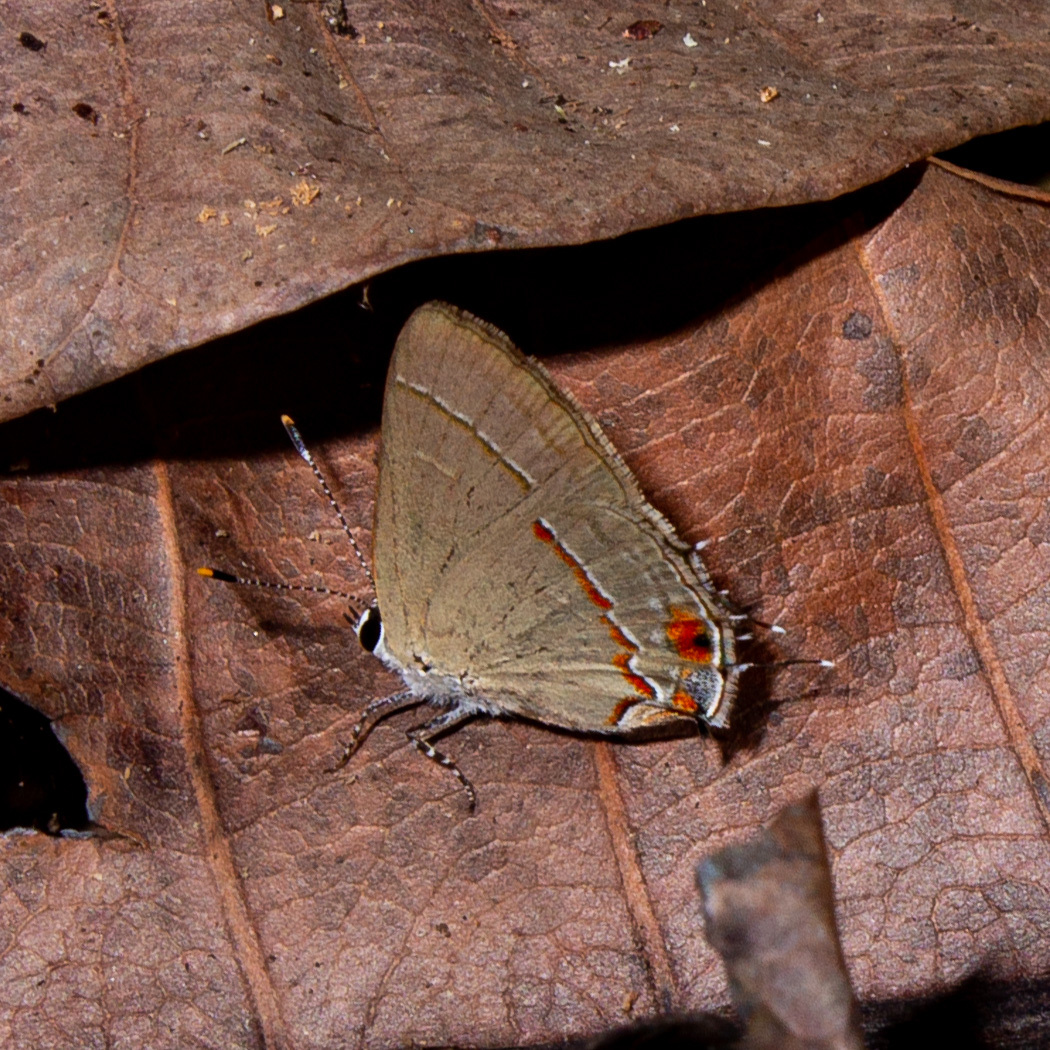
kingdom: Animalia
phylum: Arthropoda
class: Insecta
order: Lepidoptera
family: Lycaenidae
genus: Thecla
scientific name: Thecla syllis
